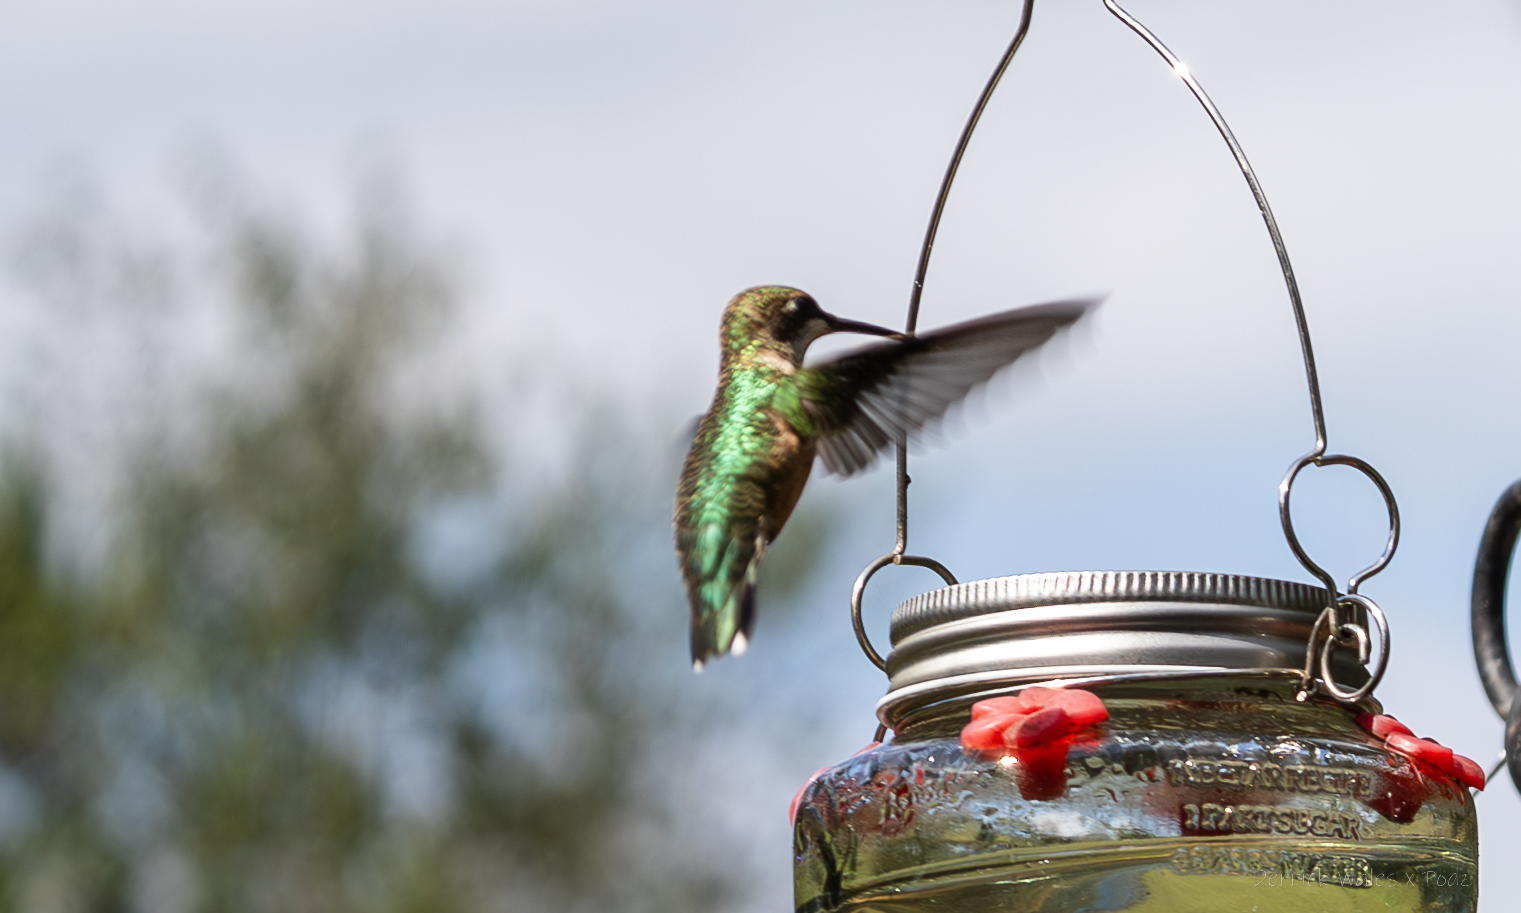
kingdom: Animalia
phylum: Chordata
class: Aves
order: Apodiformes
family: Trochilidae
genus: Archilochus
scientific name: Archilochus colubris
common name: Ruby-throated hummingbird
